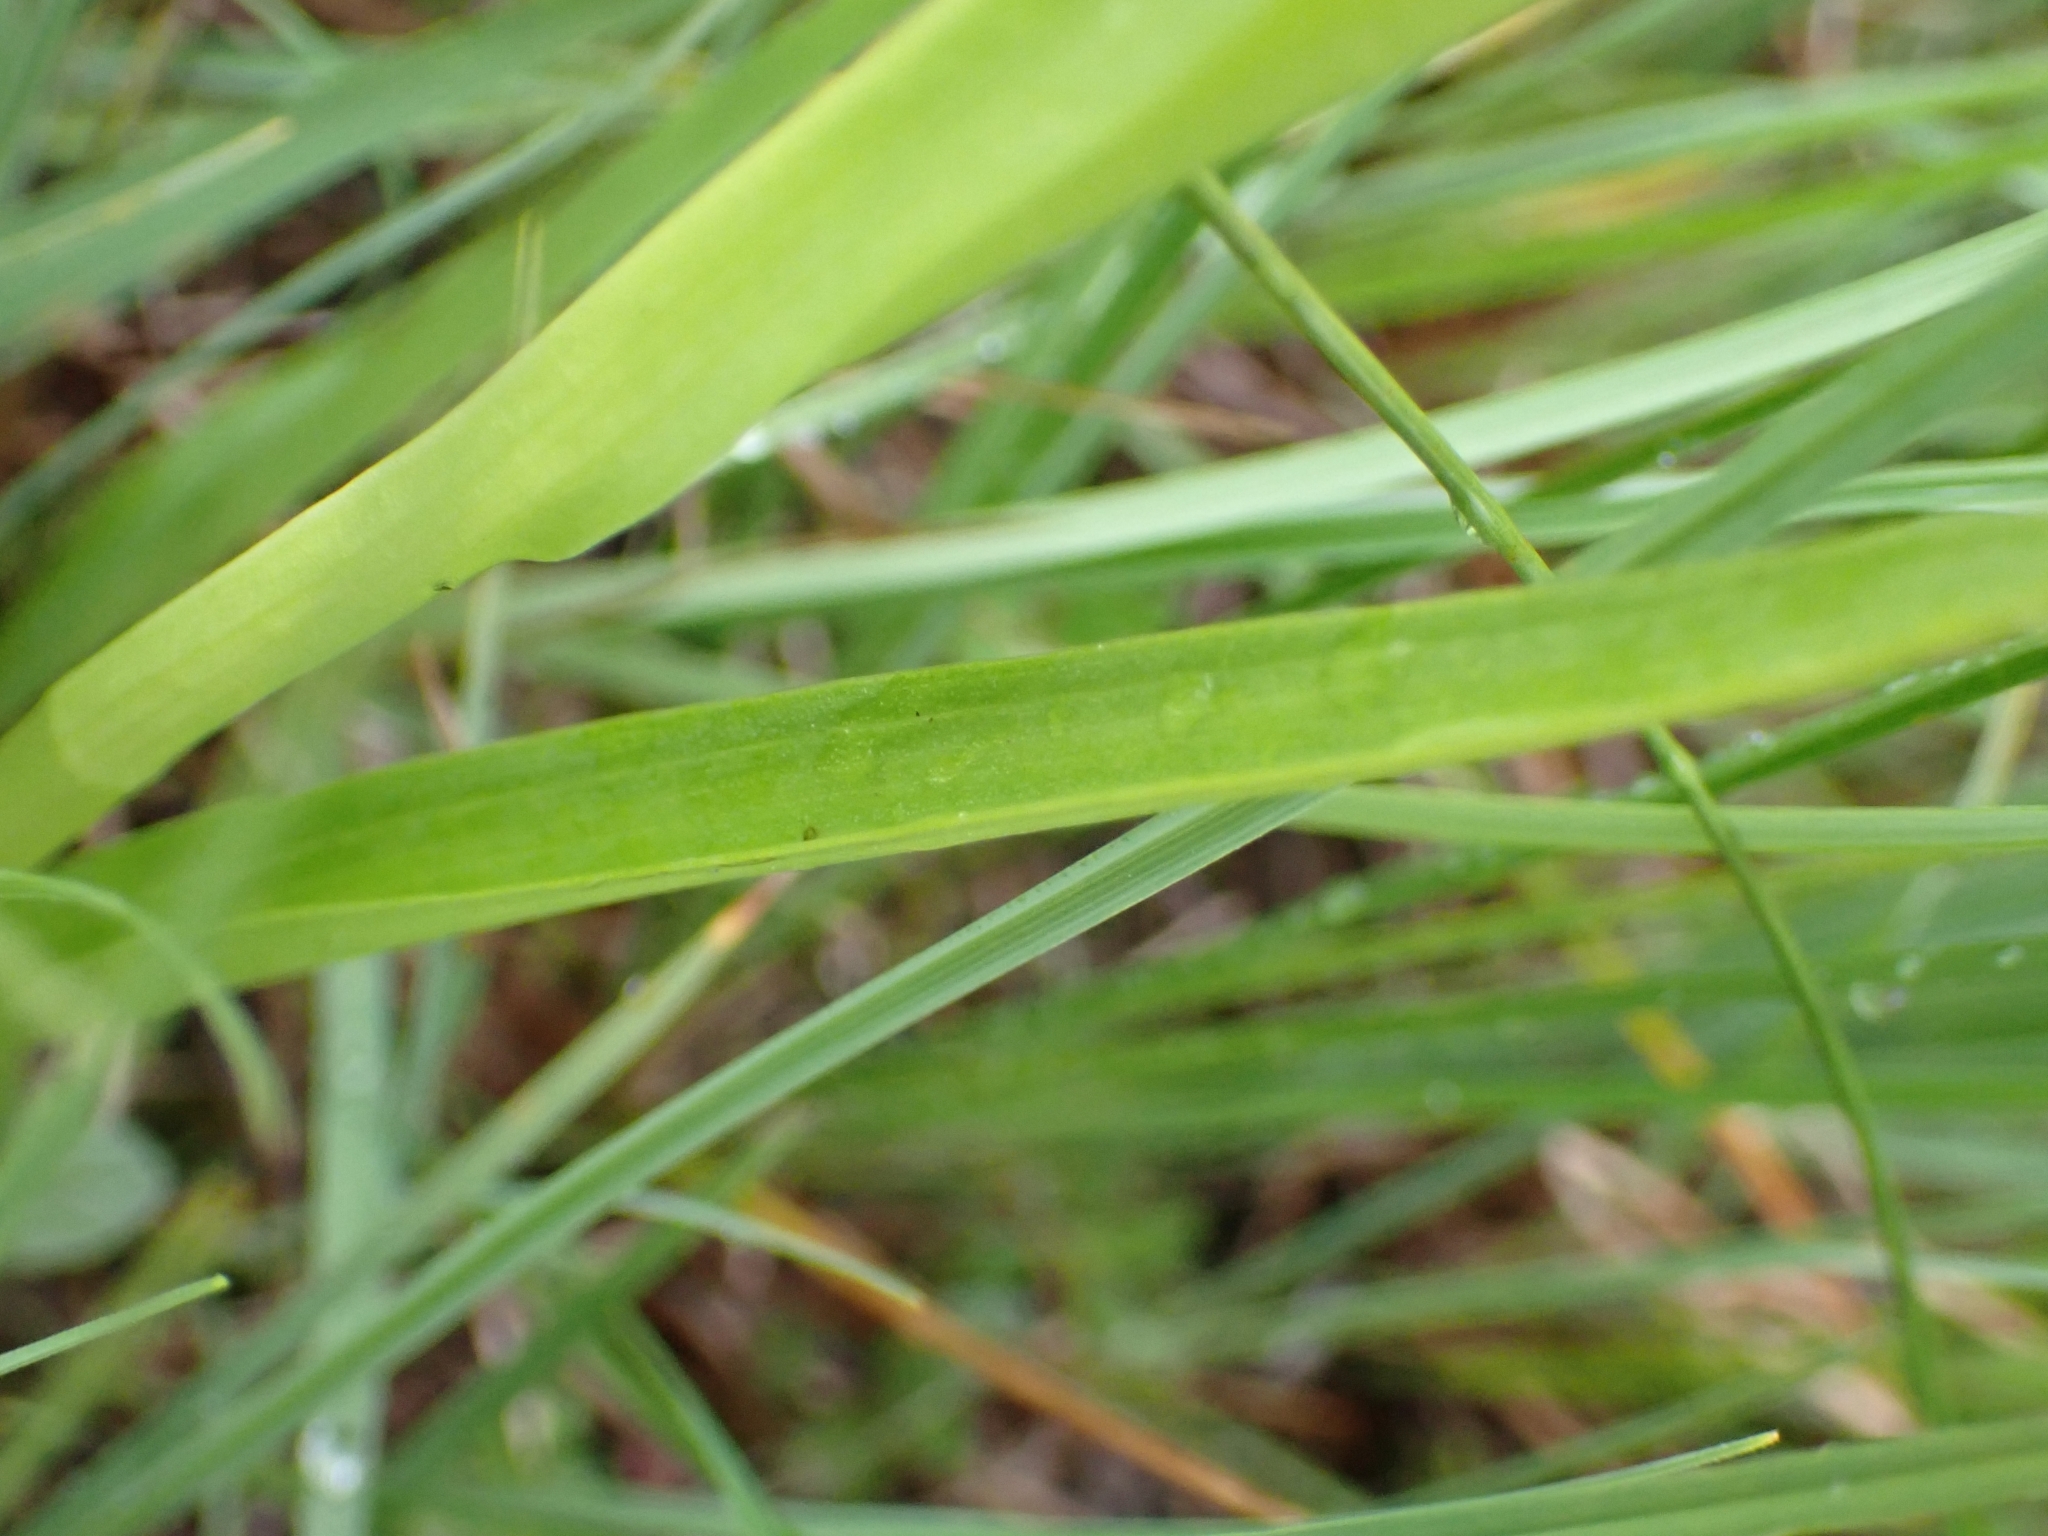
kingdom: Plantae
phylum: Tracheophyta
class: Liliopsida
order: Asparagales
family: Orchidaceae
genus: Dactylorhiza
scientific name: Dactylorhiza incarnata
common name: Early marsh-orchid
